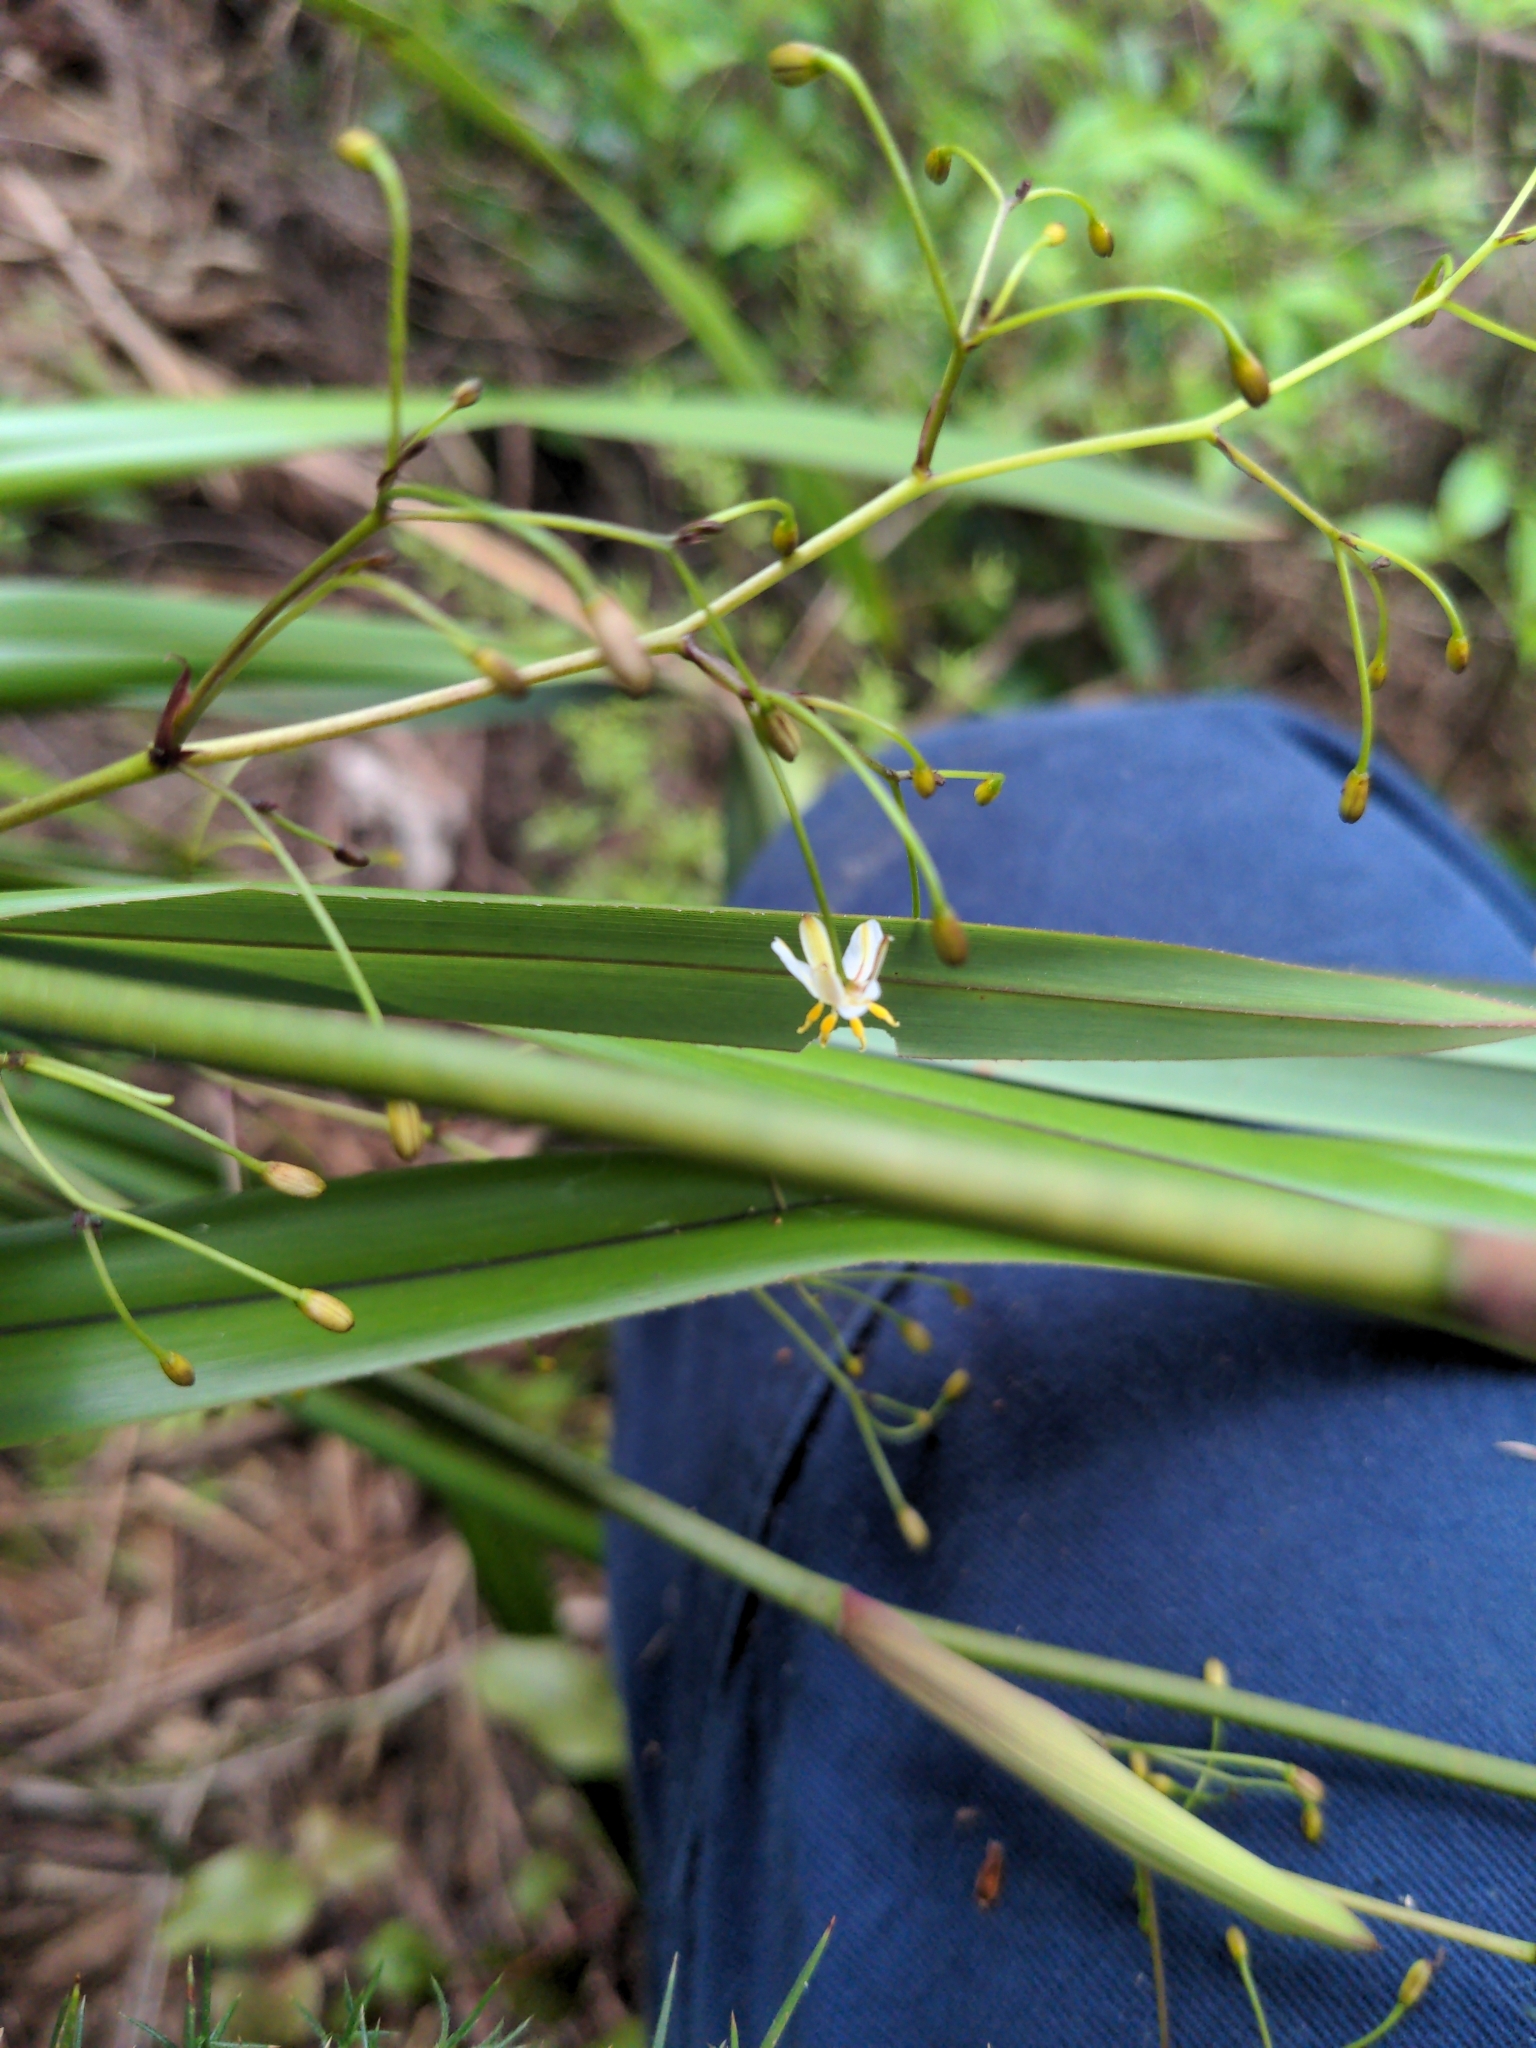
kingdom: Plantae
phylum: Tracheophyta
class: Liliopsida
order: Asparagales
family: Asphodelaceae
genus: Dianella
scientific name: Dianella nigra
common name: New zealand-blueberry
